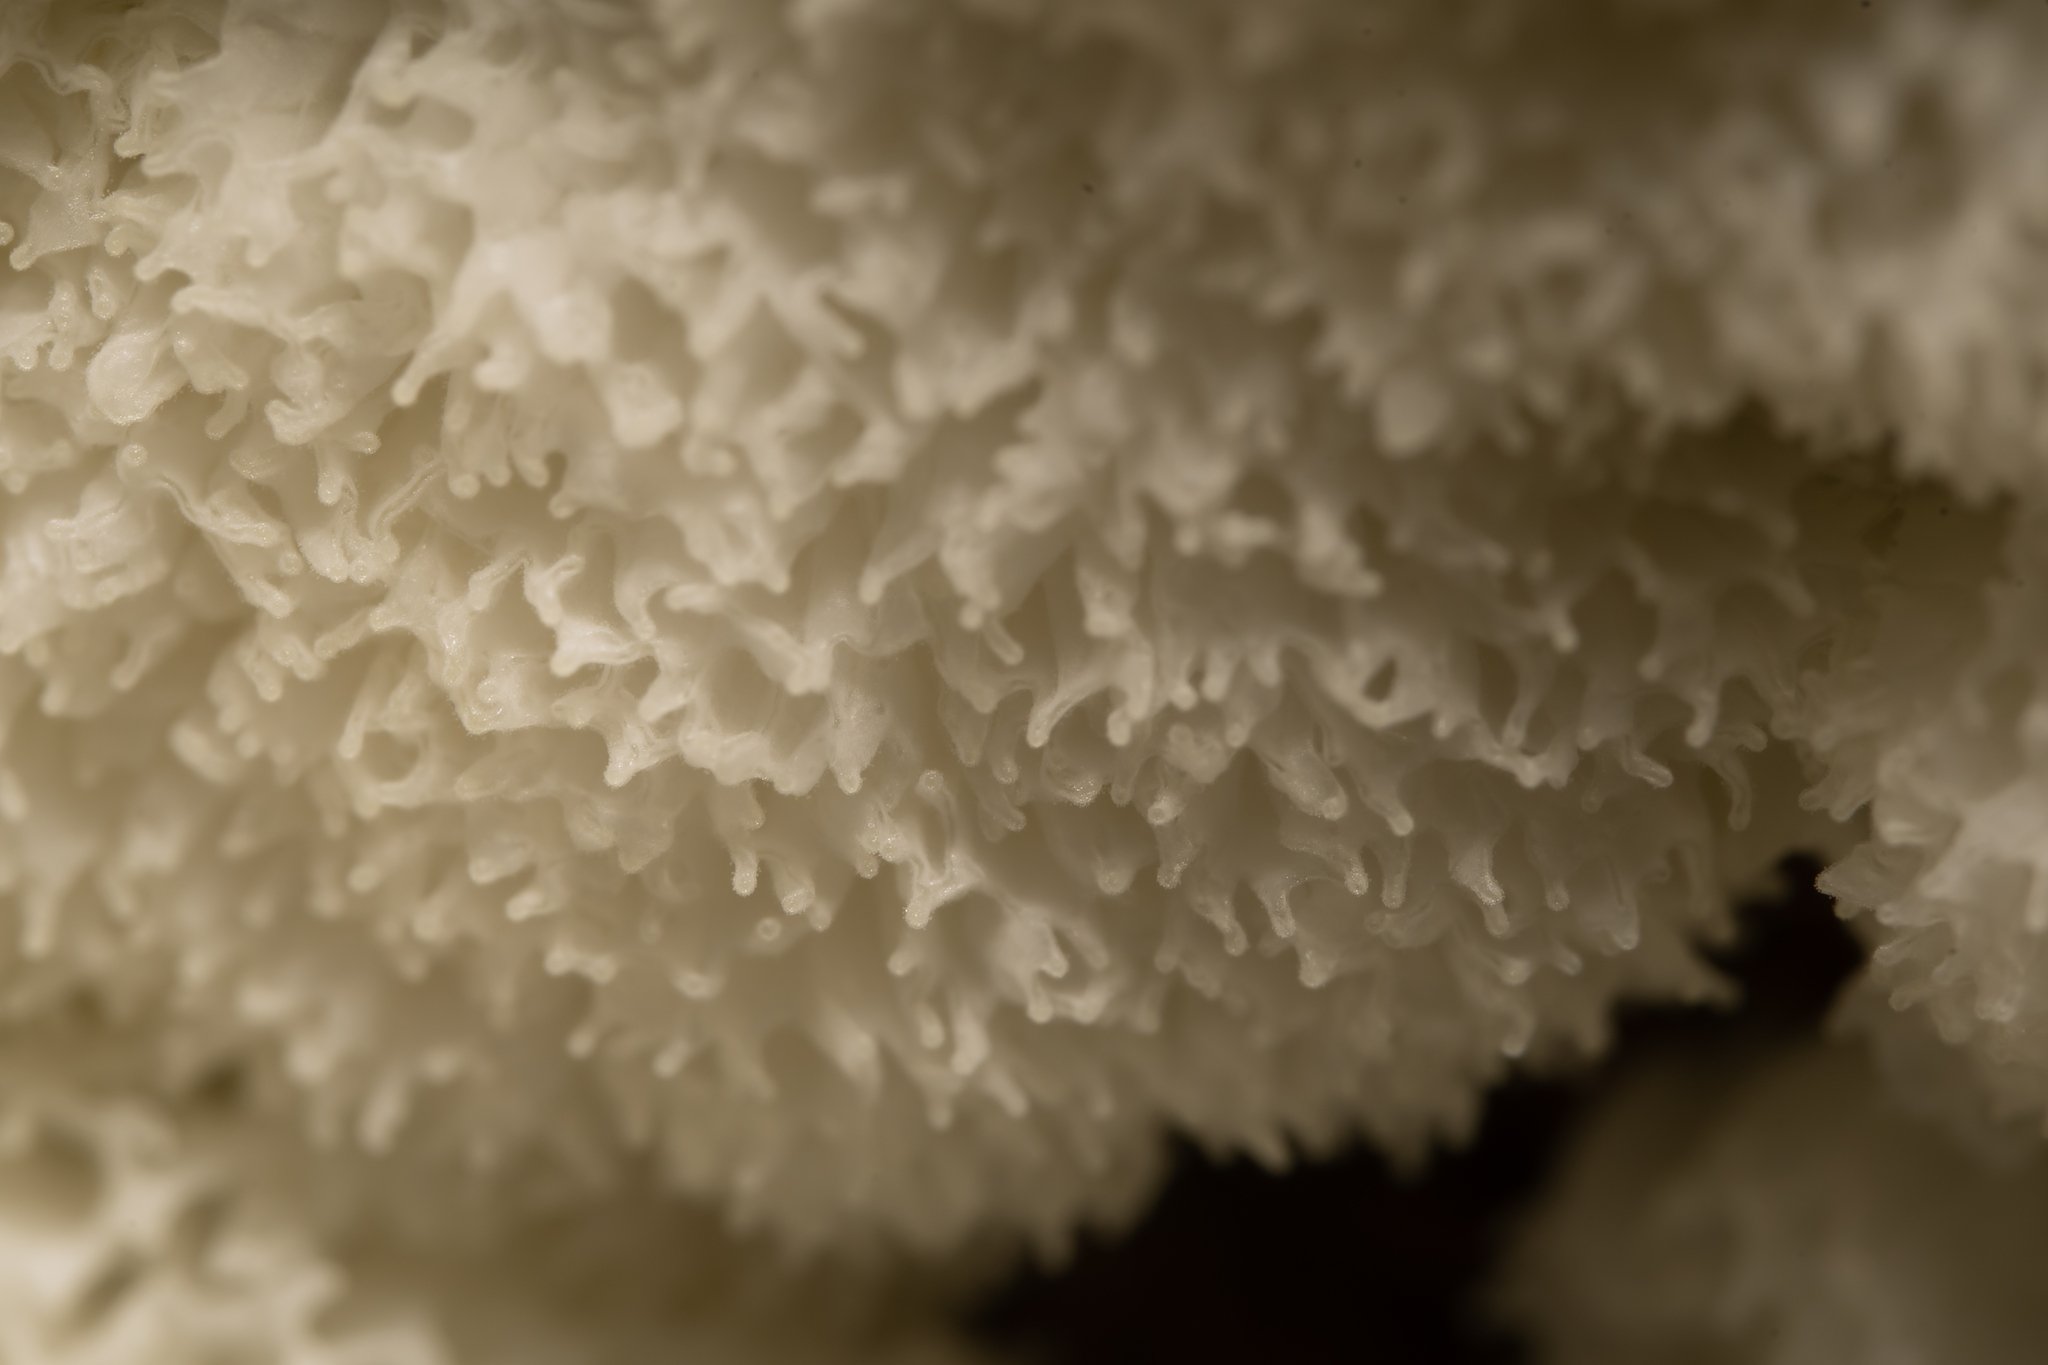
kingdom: Protozoa
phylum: Mycetozoa
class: Protosteliomycetes
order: Ceratiomyxales
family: Ceratiomyxaceae
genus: Ceratiomyxa
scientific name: Ceratiomyxa fruticulosa
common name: Honeycomb coral slime mold
